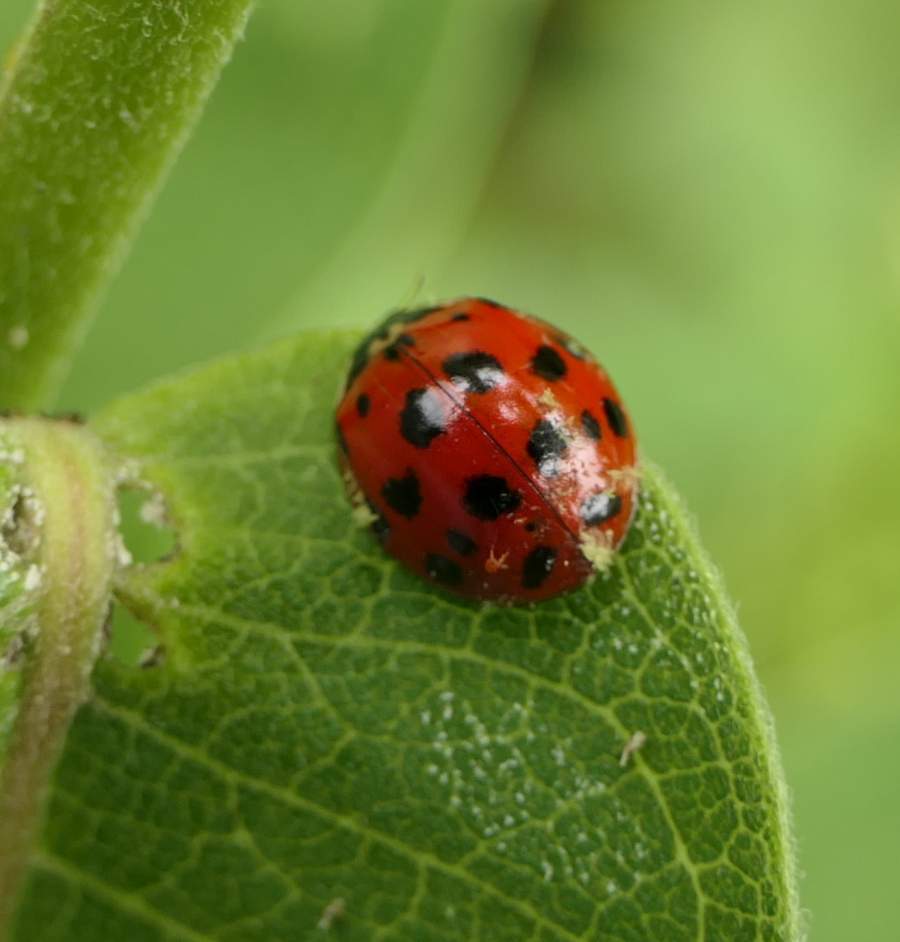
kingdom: Animalia
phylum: Arthropoda
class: Insecta
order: Coleoptera
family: Coccinellidae
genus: Harmonia
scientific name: Harmonia axyridis
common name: Harlequin ladybird
